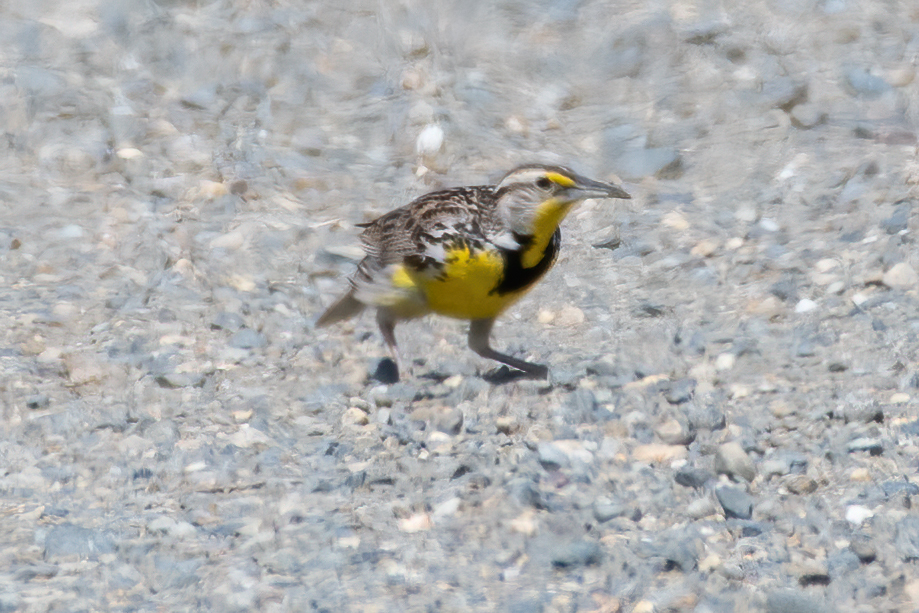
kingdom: Animalia
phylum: Chordata
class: Aves
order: Passeriformes
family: Icteridae
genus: Sturnella
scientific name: Sturnella neglecta
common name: Western meadowlark
